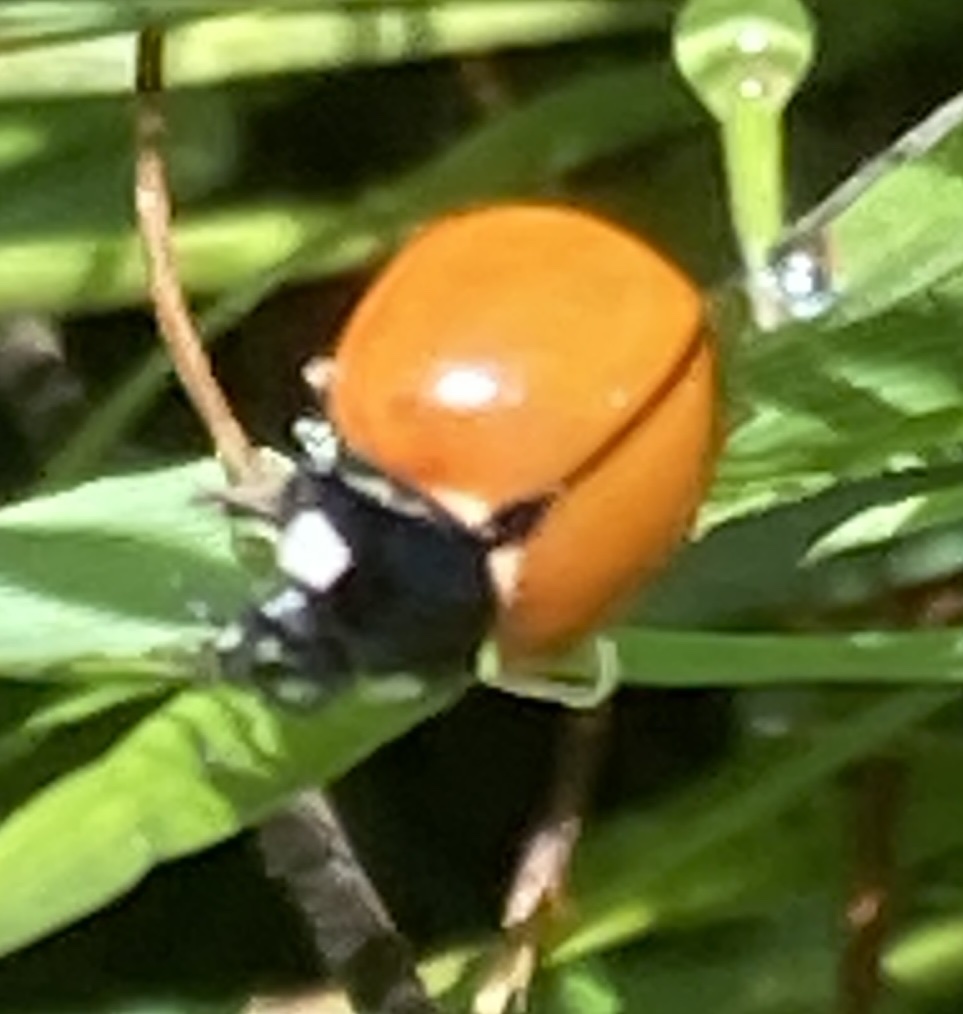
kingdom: Animalia
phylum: Arthropoda
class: Insecta
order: Coleoptera
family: Coccinellidae
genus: Coccinella
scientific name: Coccinella californica
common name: Lady beetle
